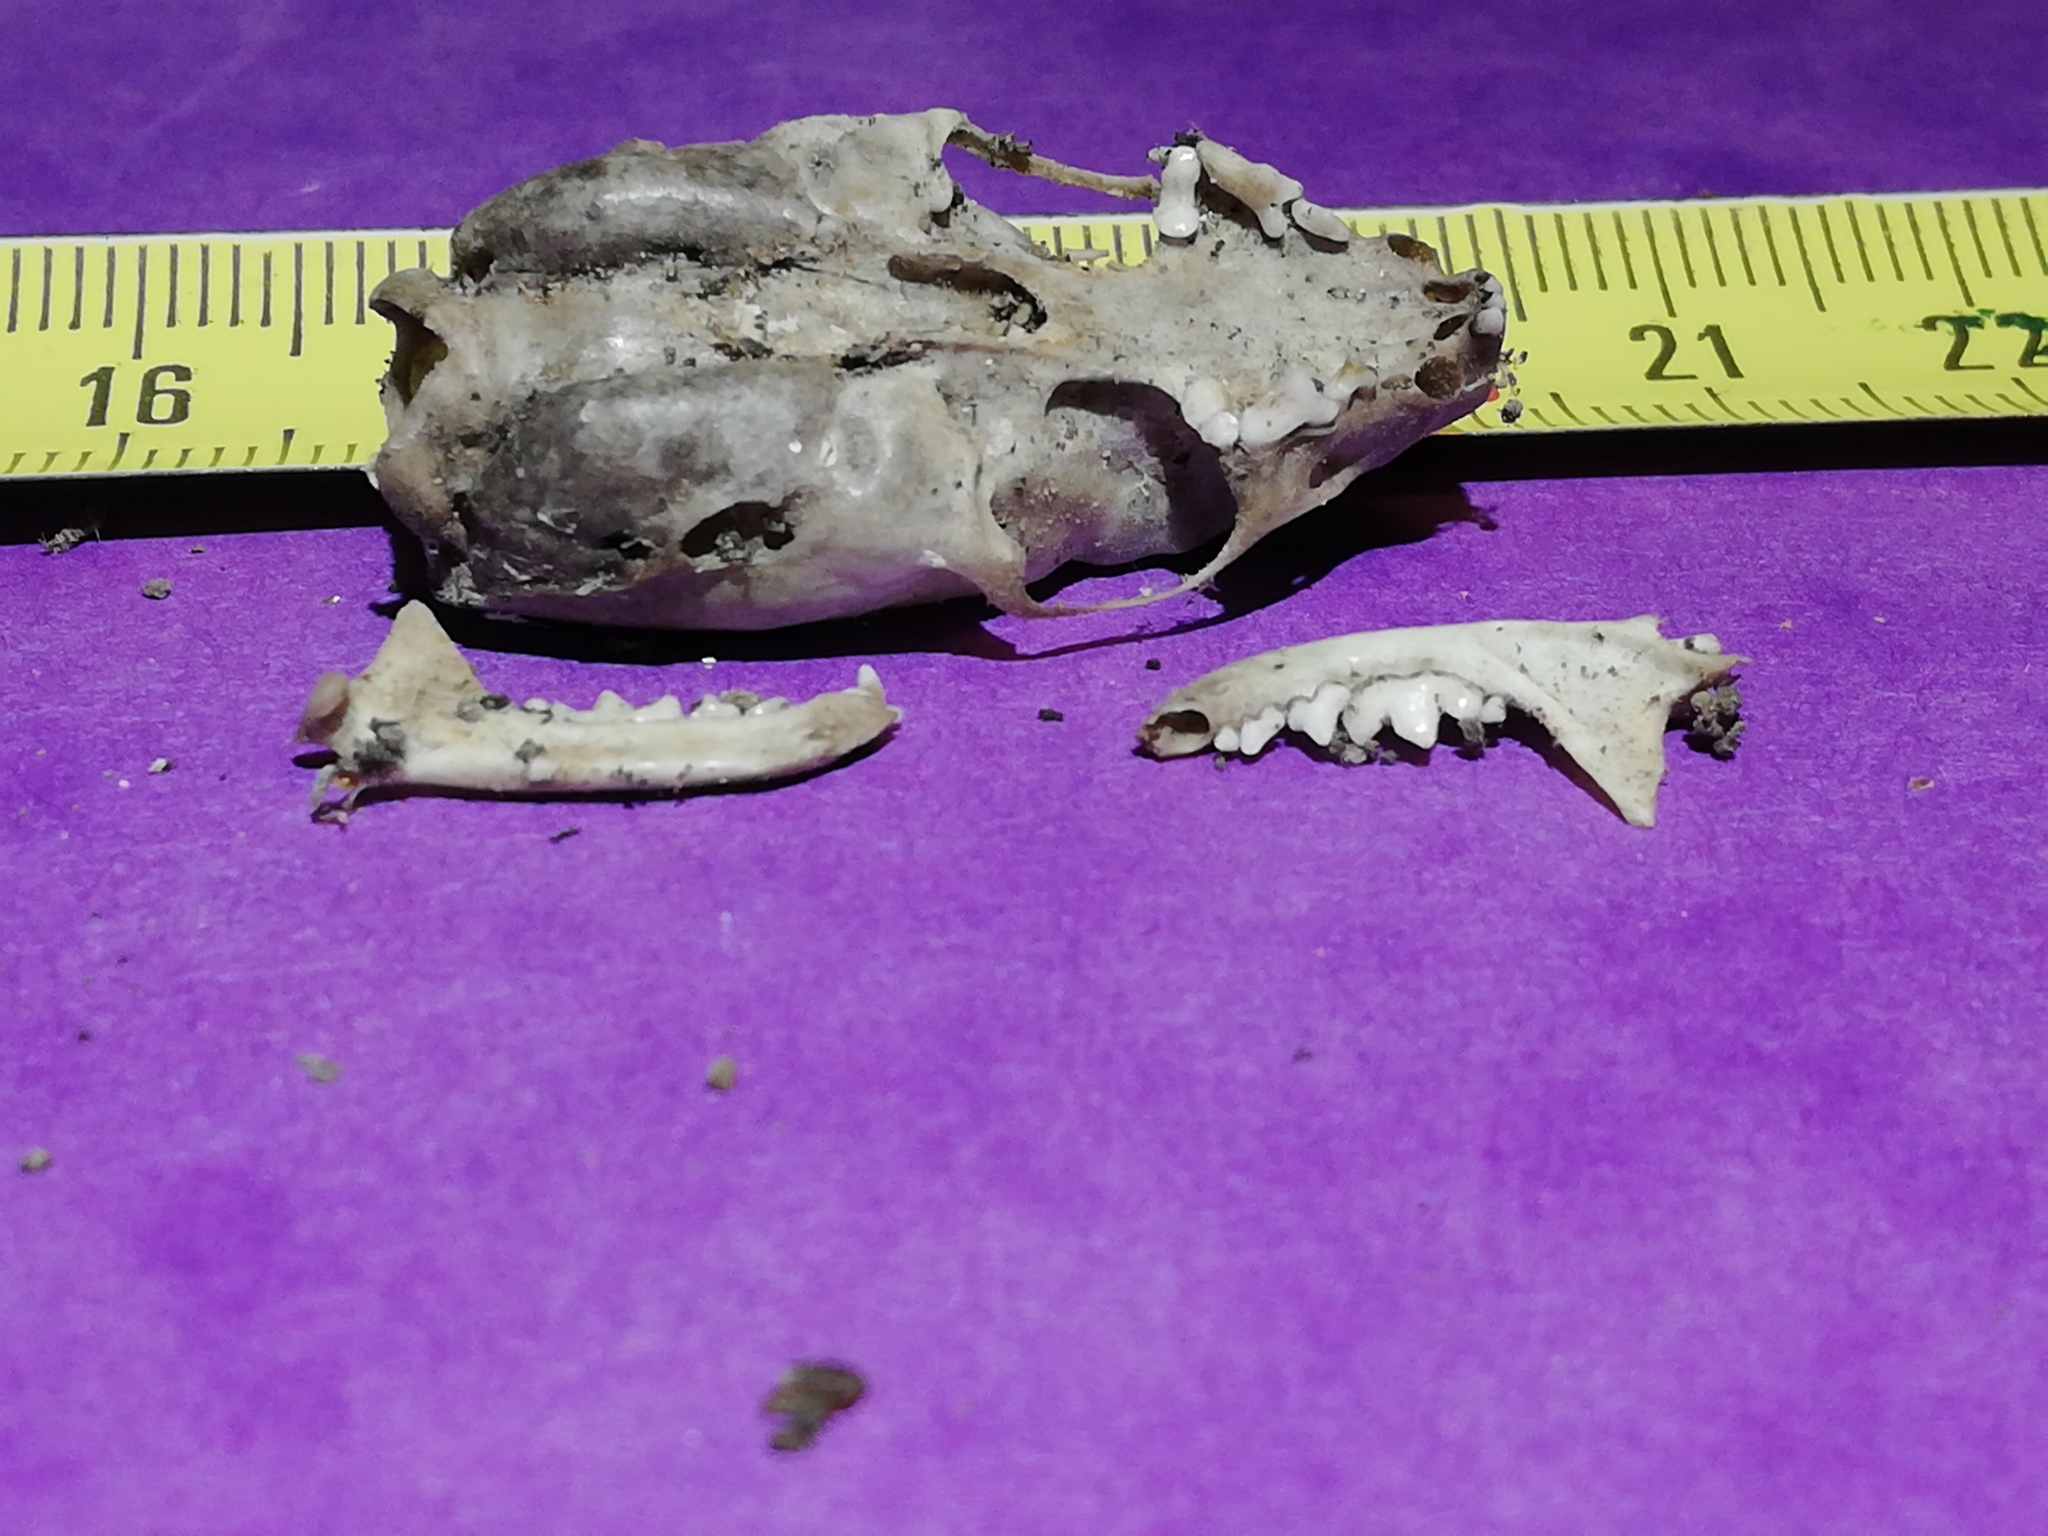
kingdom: Animalia
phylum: Chordata
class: Mammalia
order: Carnivora
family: Mustelidae
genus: Mustela
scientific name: Mustela nivalis
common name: Least weasel
